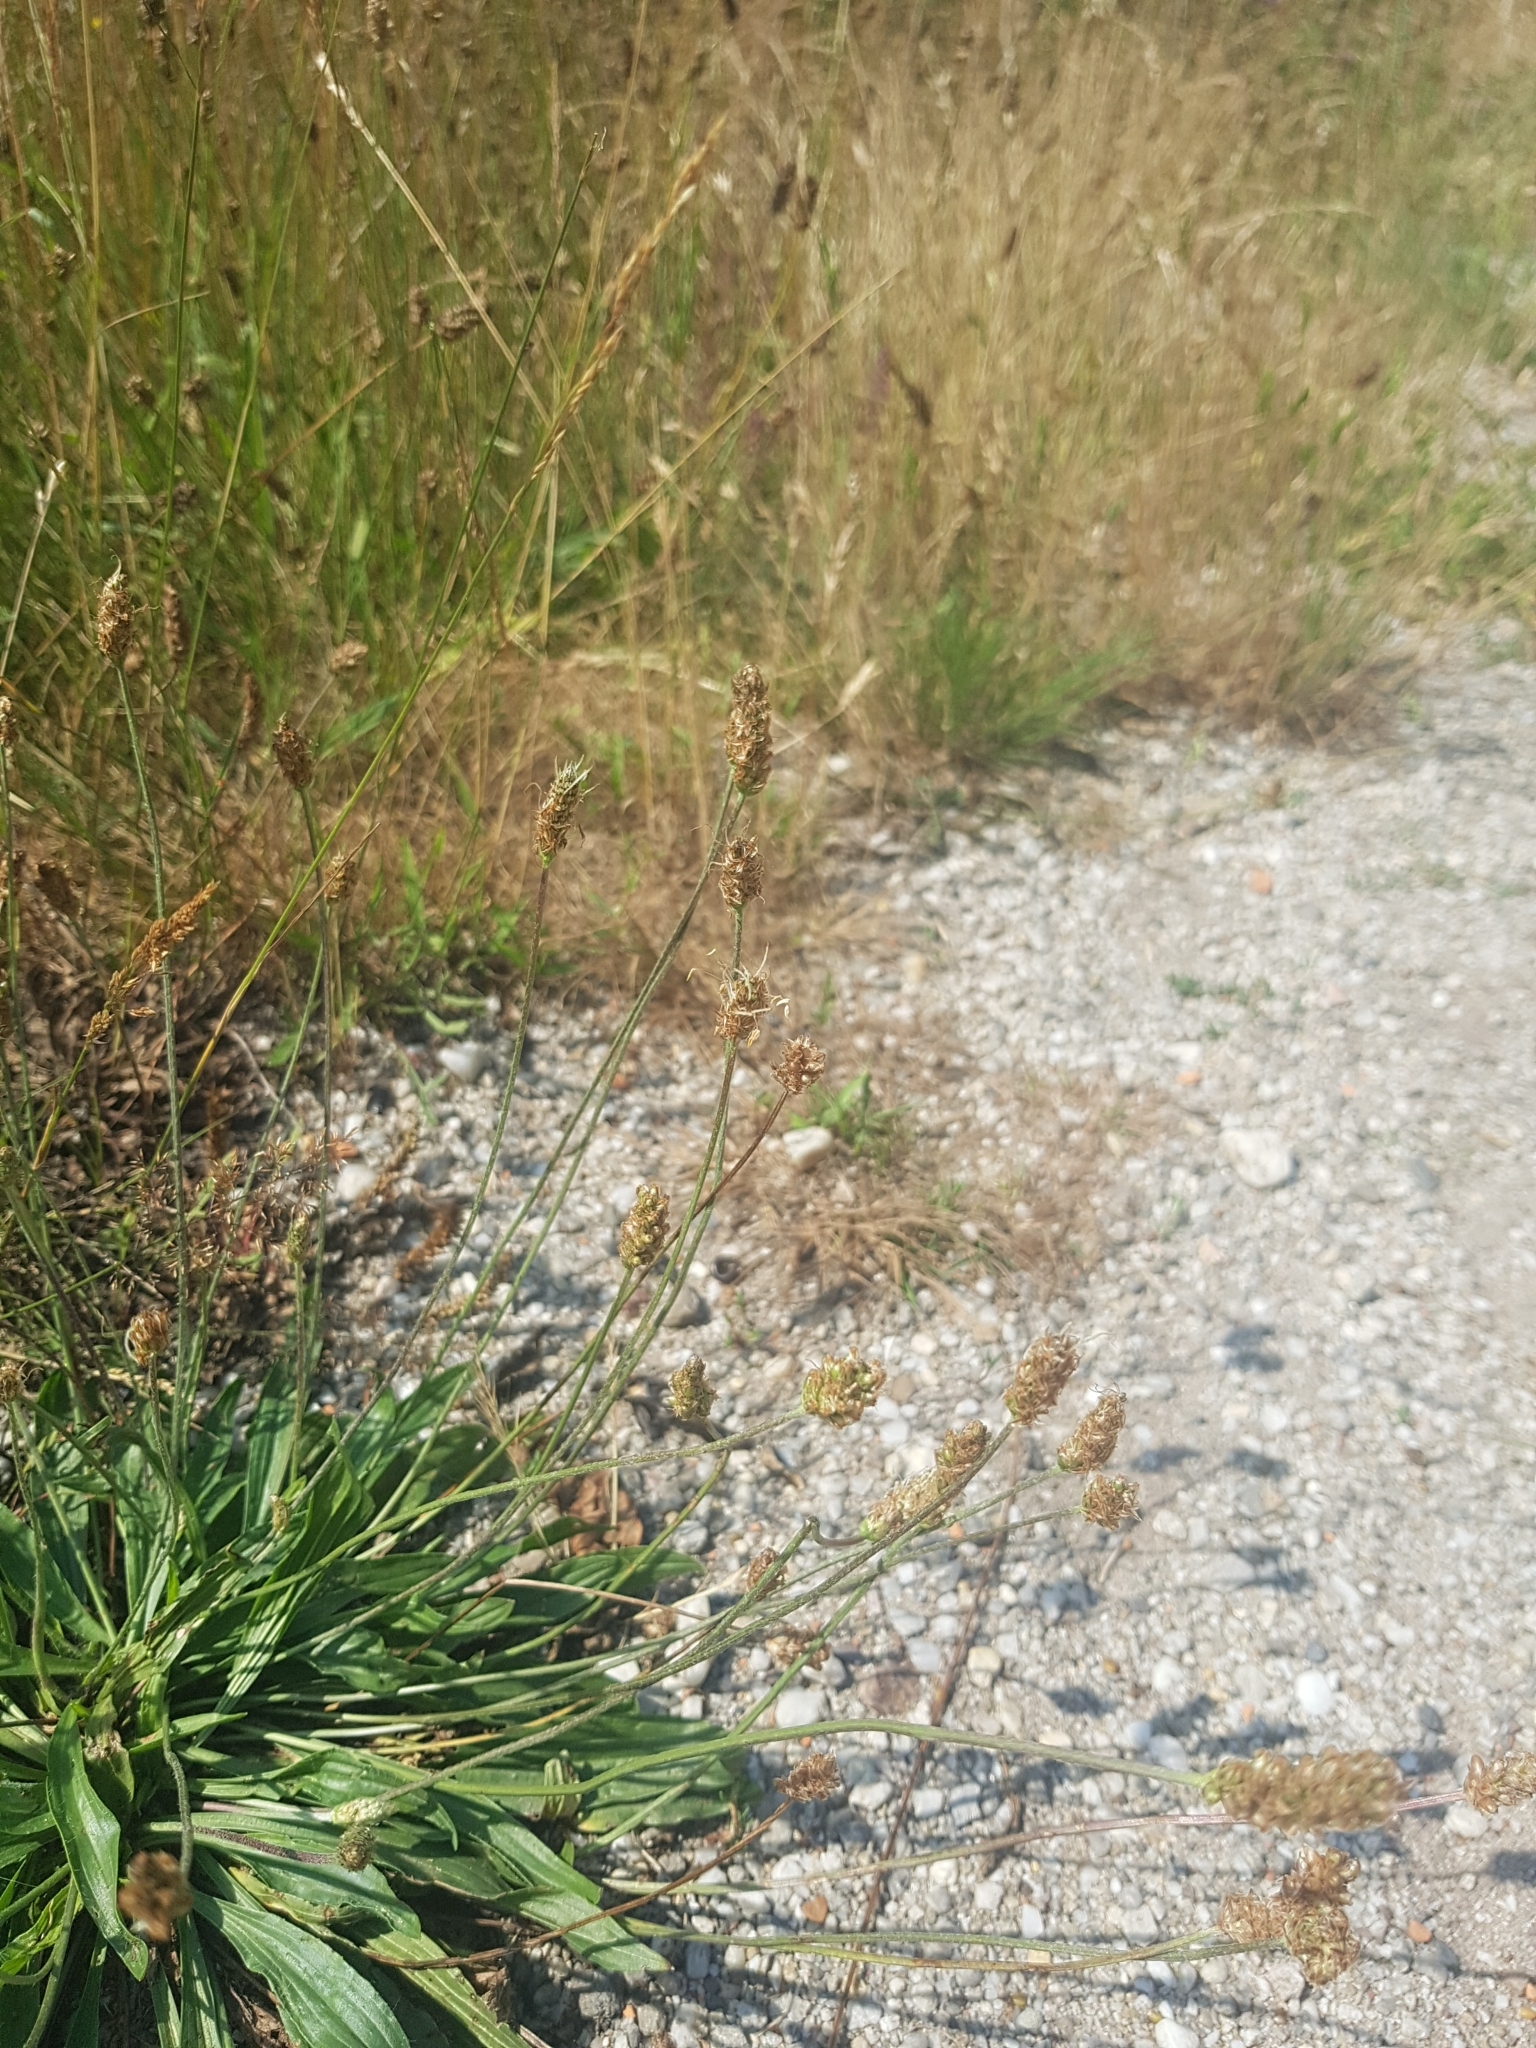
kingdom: Plantae
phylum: Tracheophyta
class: Magnoliopsida
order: Lamiales
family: Plantaginaceae
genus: Plantago
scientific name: Plantago lanceolata
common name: Ribwort plantain
